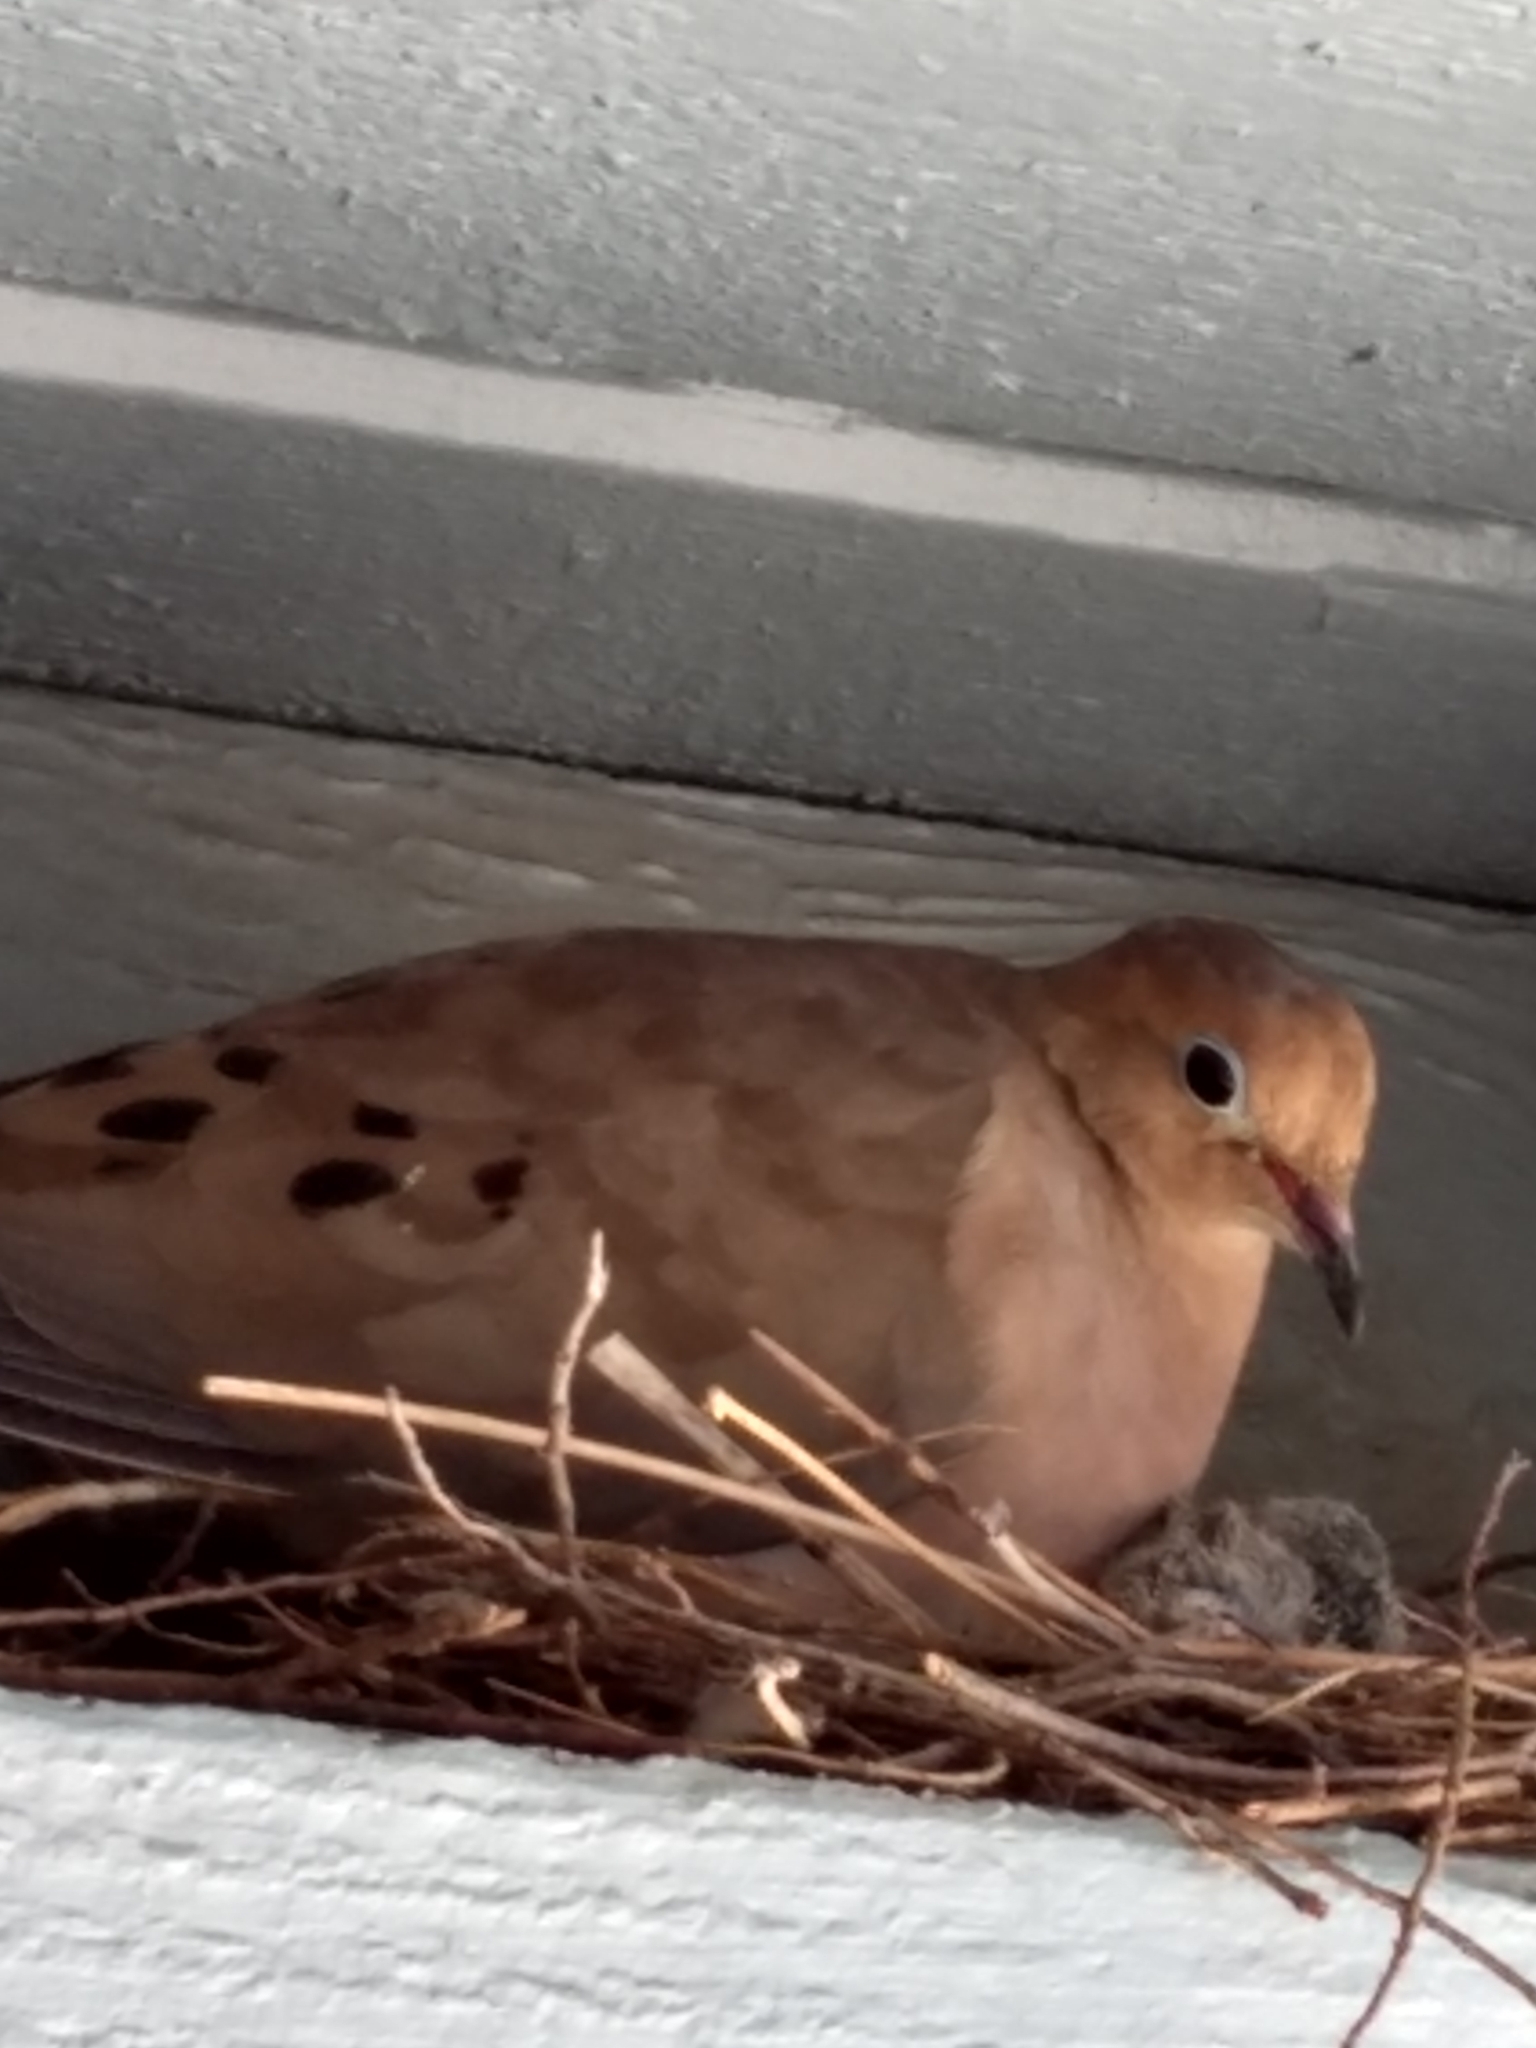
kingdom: Animalia
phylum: Chordata
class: Aves
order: Columbiformes
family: Columbidae
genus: Zenaida
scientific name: Zenaida macroura
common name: Mourning dove
